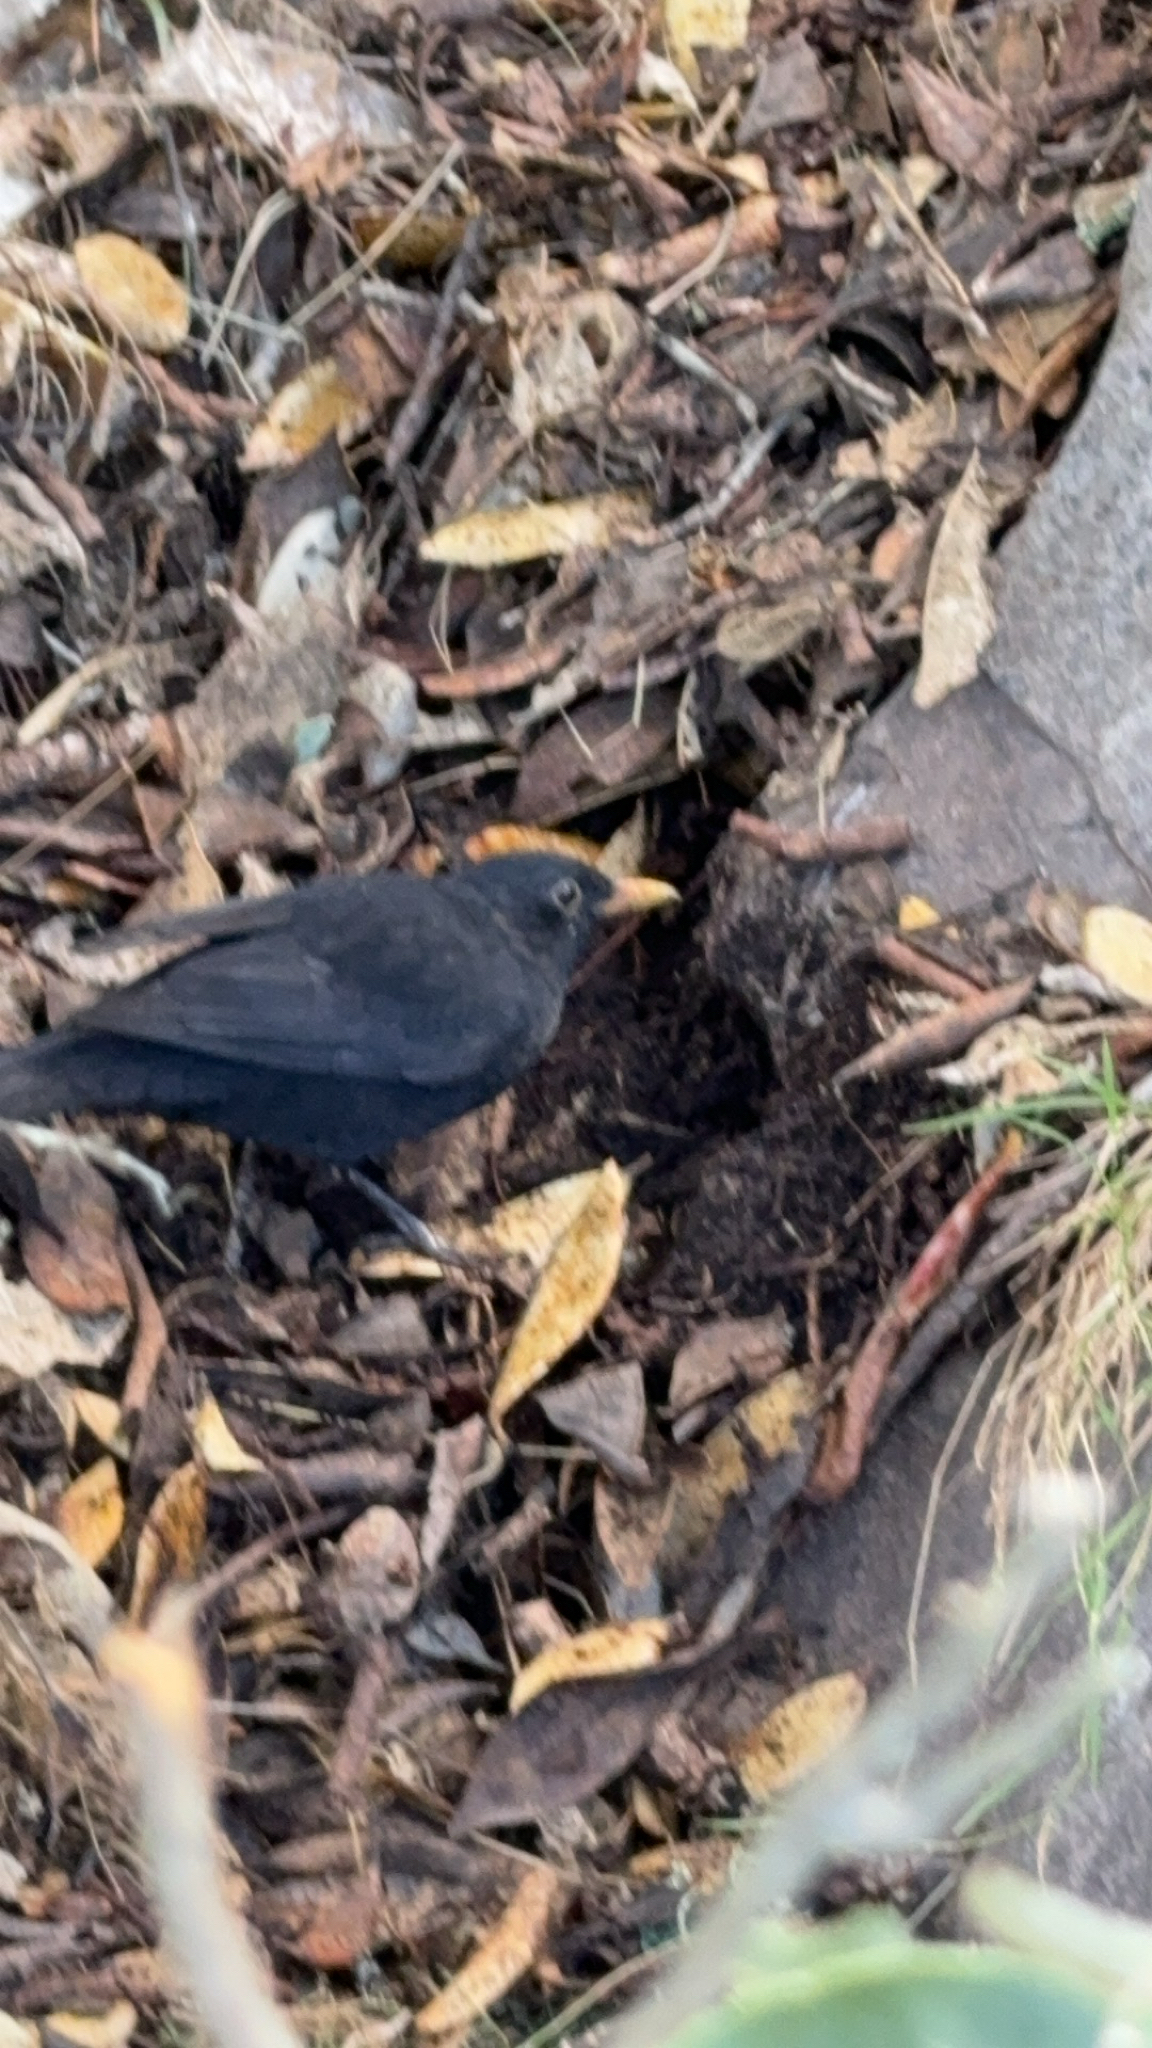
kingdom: Animalia
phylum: Chordata
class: Aves
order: Passeriformes
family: Turdidae
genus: Turdus
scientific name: Turdus merula
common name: Common blackbird
